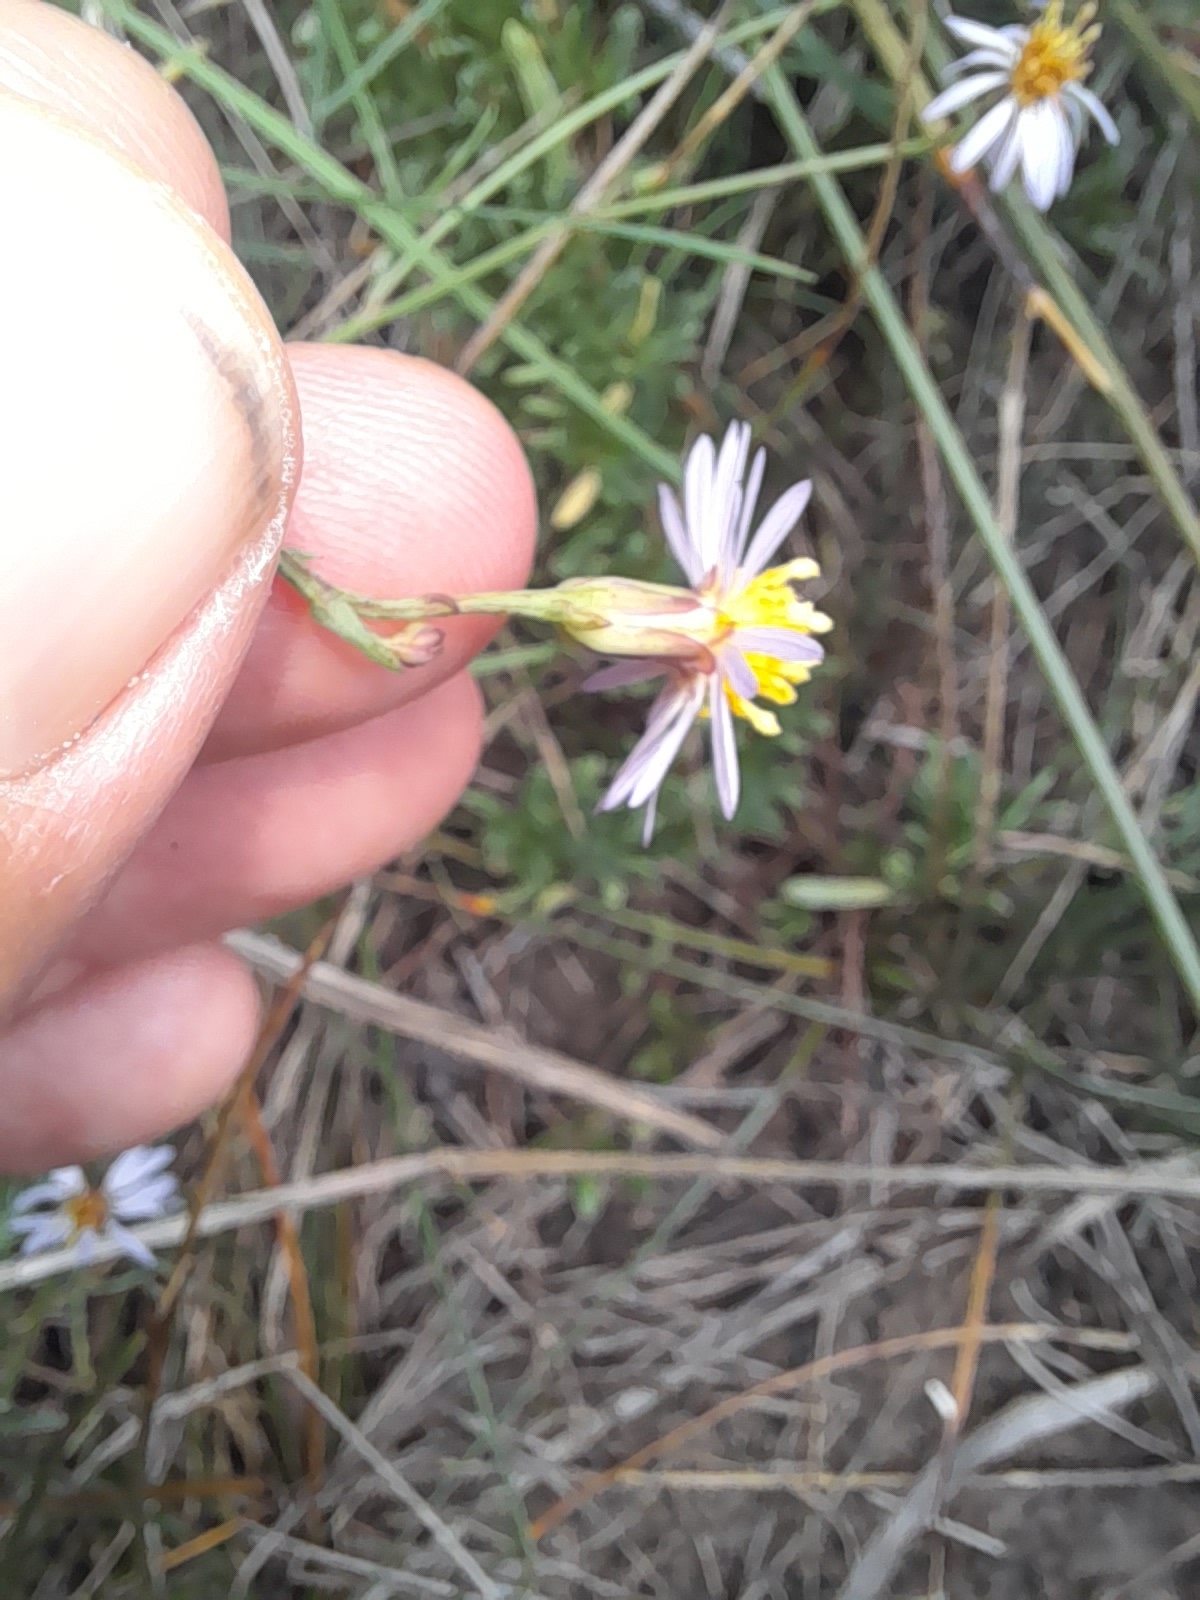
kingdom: Plantae
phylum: Tracheophyta
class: Magnoliopsida
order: Asterales
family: Asteraceae
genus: Tripolium
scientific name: Tripolium pannonicum
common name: Sea aster
